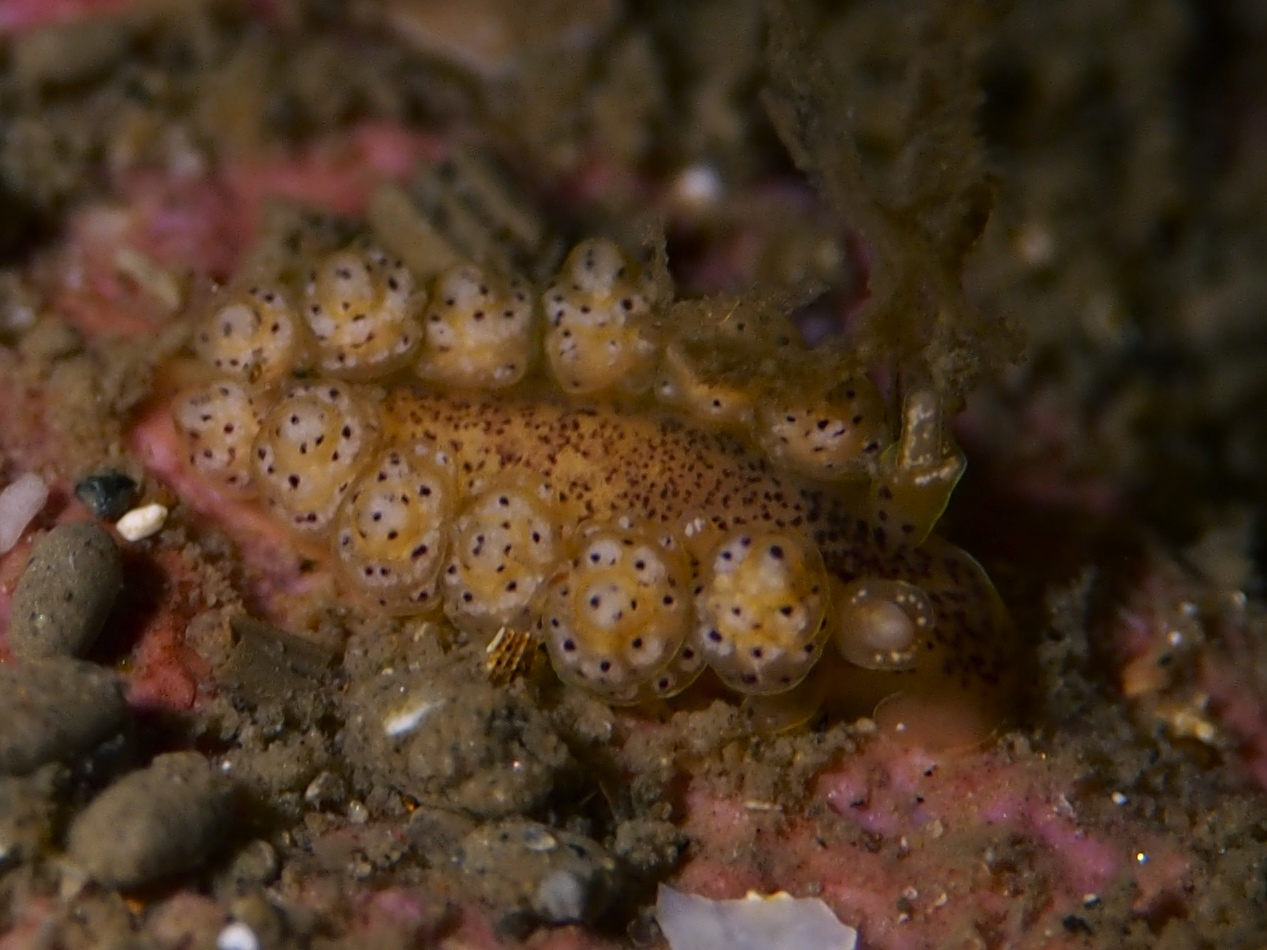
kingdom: Animalia
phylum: Mollusca
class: Gastropoda
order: Nudibranchia
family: Dotidae
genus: Doto
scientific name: Doto dunnei
